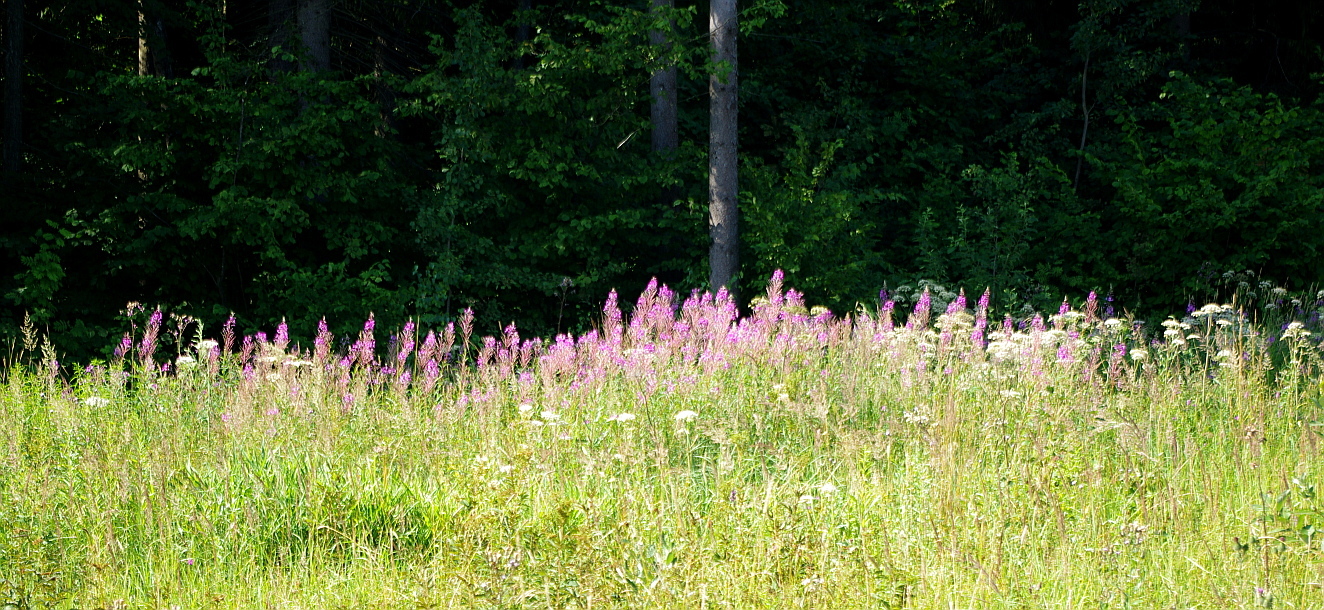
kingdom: Plantae
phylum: Tracheophyta
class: Magnoliopsida
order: Myrtales
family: Onagraceae
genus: Chamaenerion
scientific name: Chamaenerion angustifolium
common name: Fireweed
